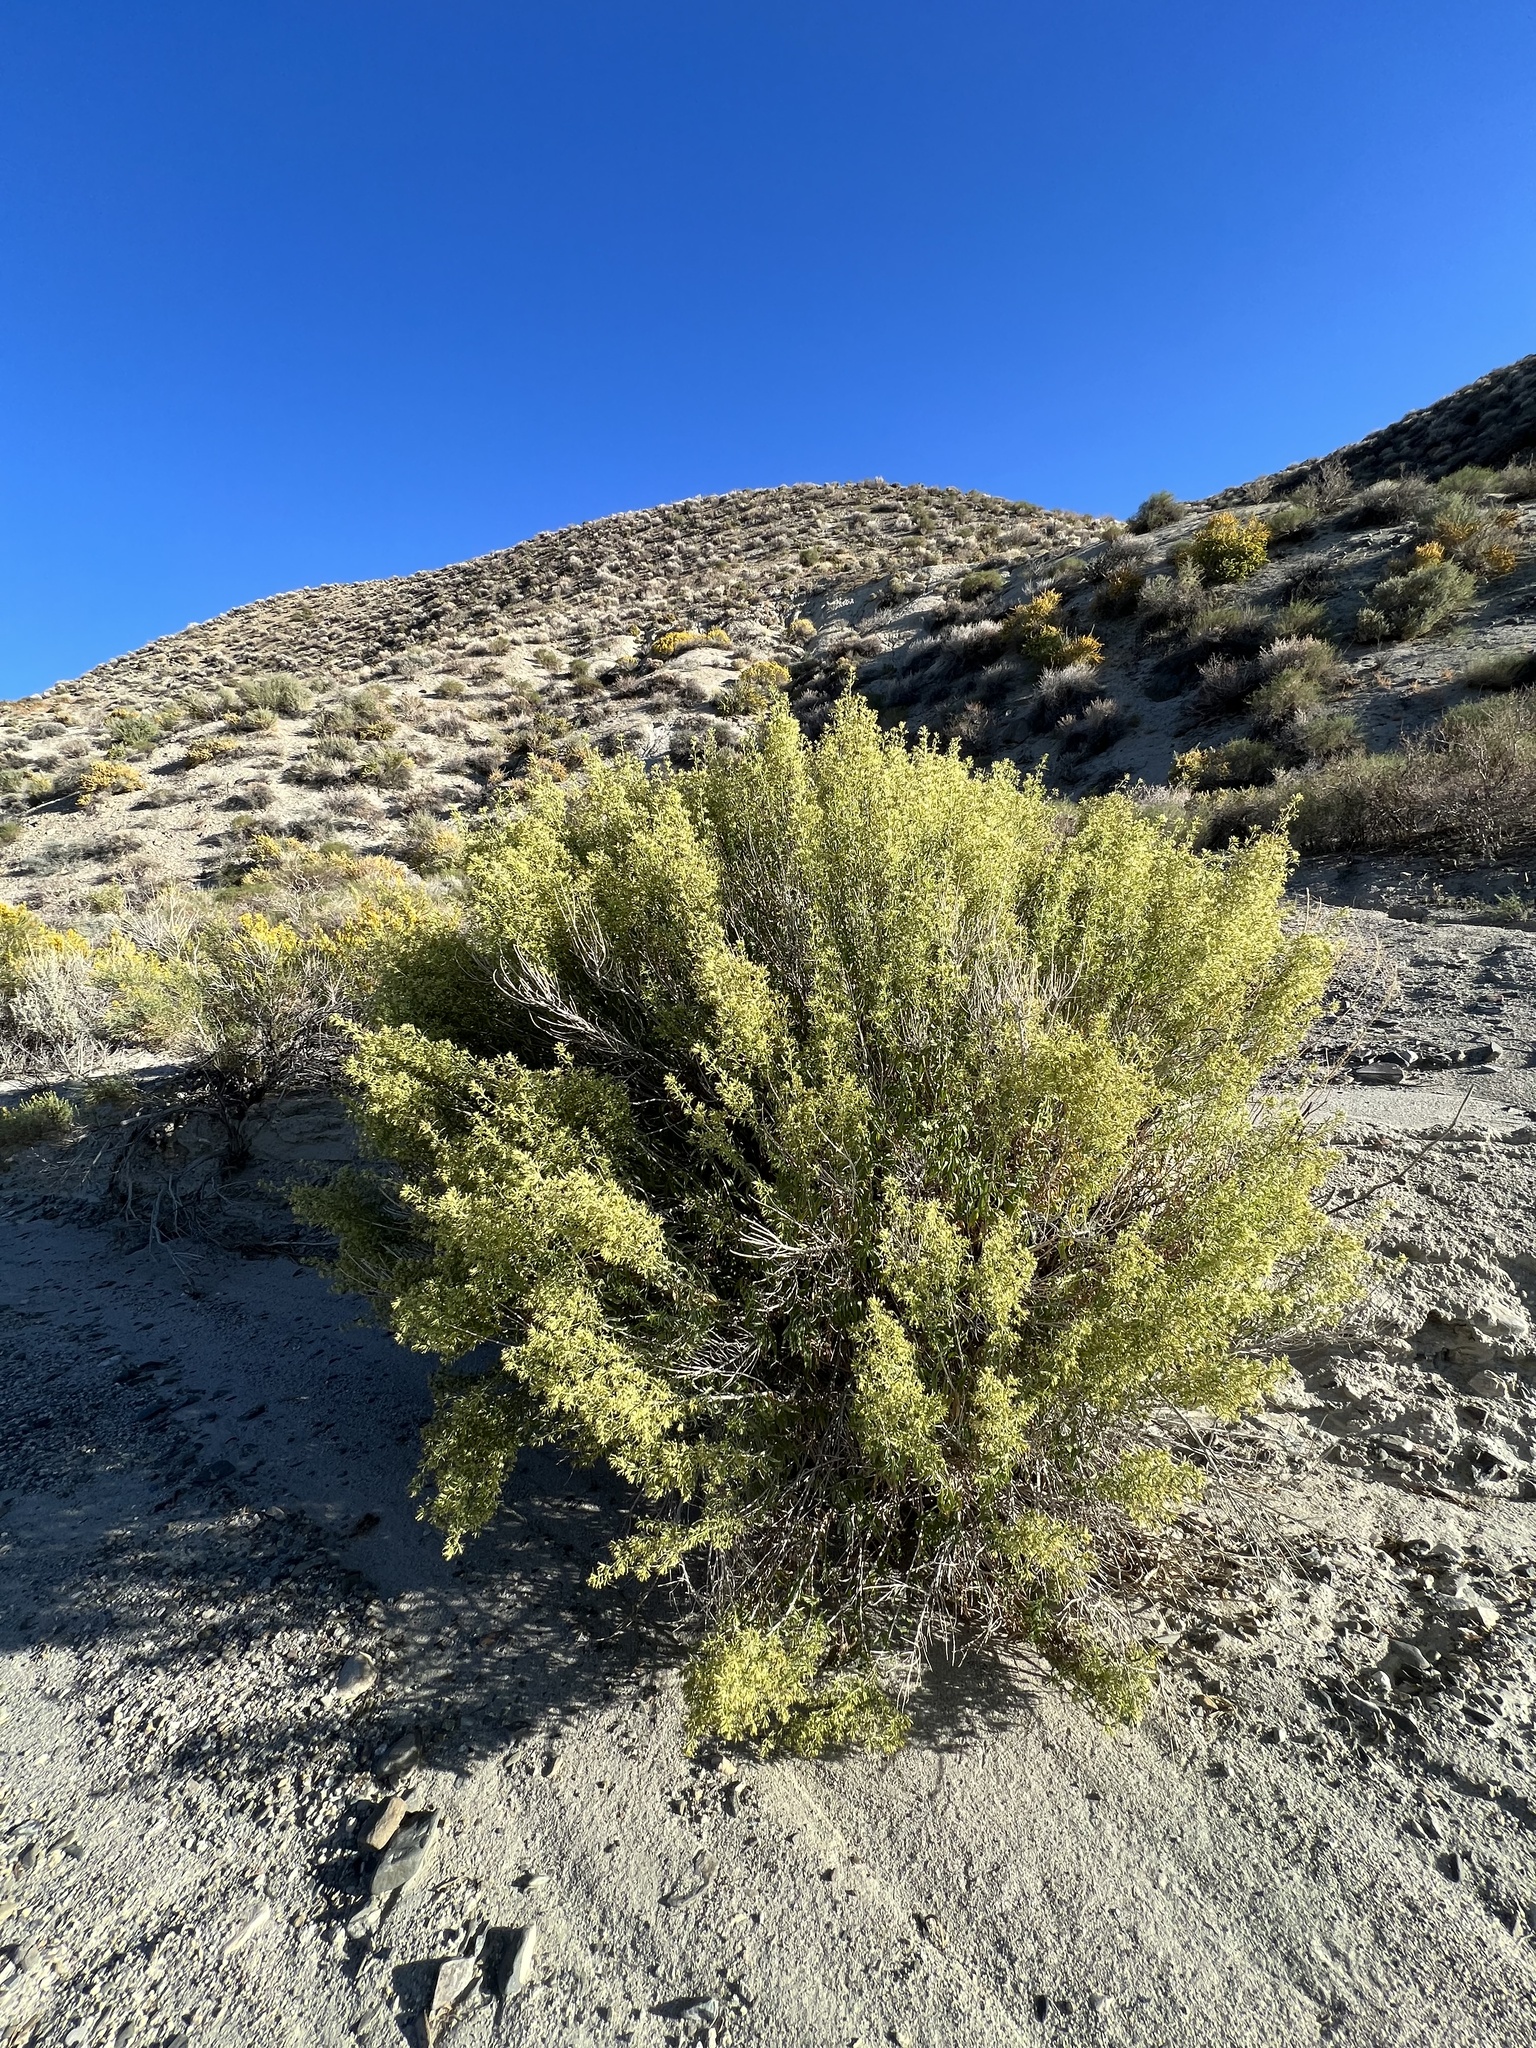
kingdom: Plantae
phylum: Tracheophyta
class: Magnoliopsida
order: Asterales
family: Asteraceae
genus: Brickellia
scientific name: Brickellia longifolia
